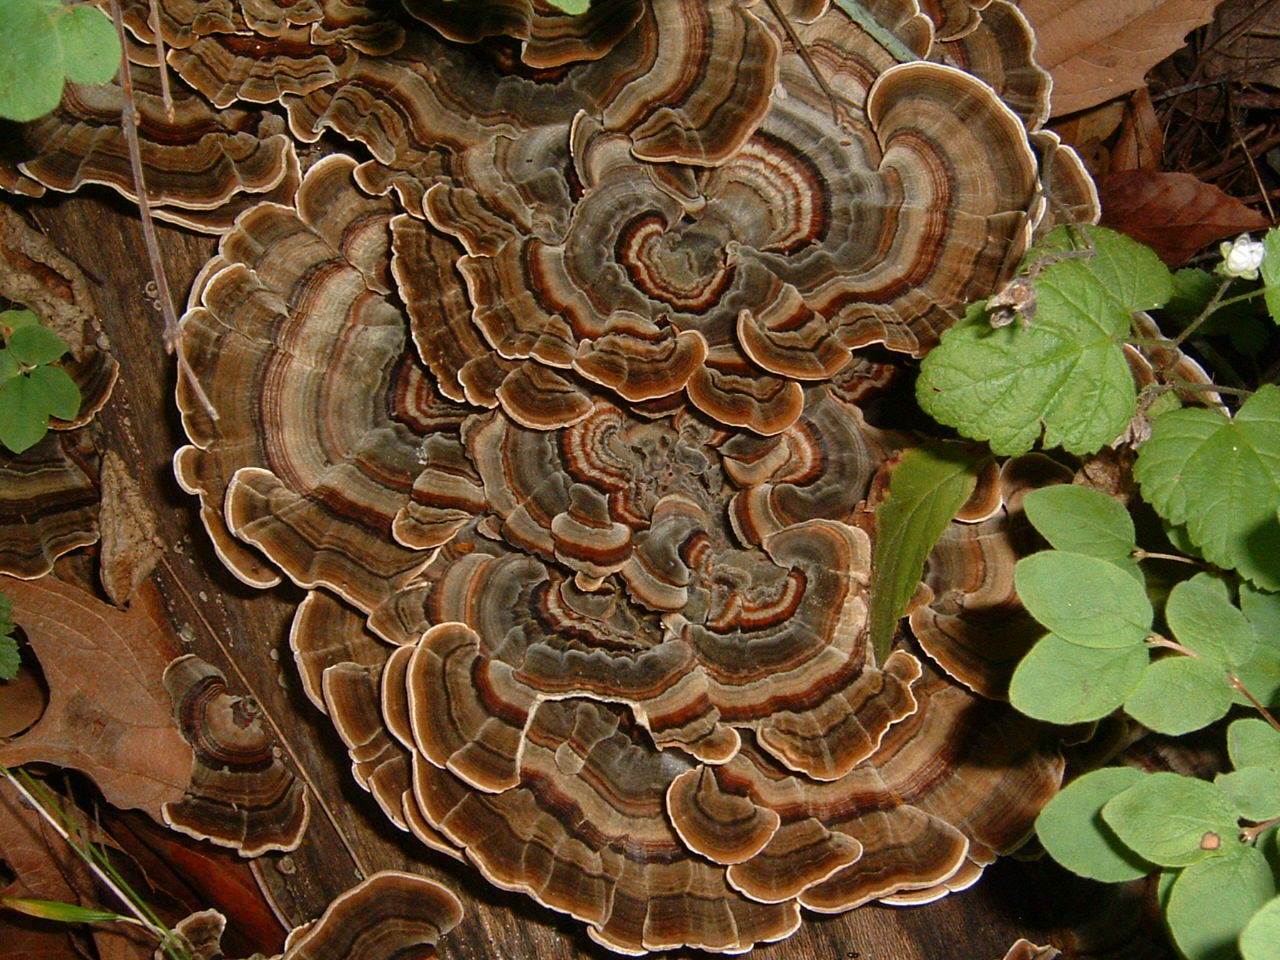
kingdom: Fungi
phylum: Basidiomycota
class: Agaricomycetes
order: Polyporales
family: Polyporaceae
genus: Trametes
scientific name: Trametes versicolor
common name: Turkeytail
